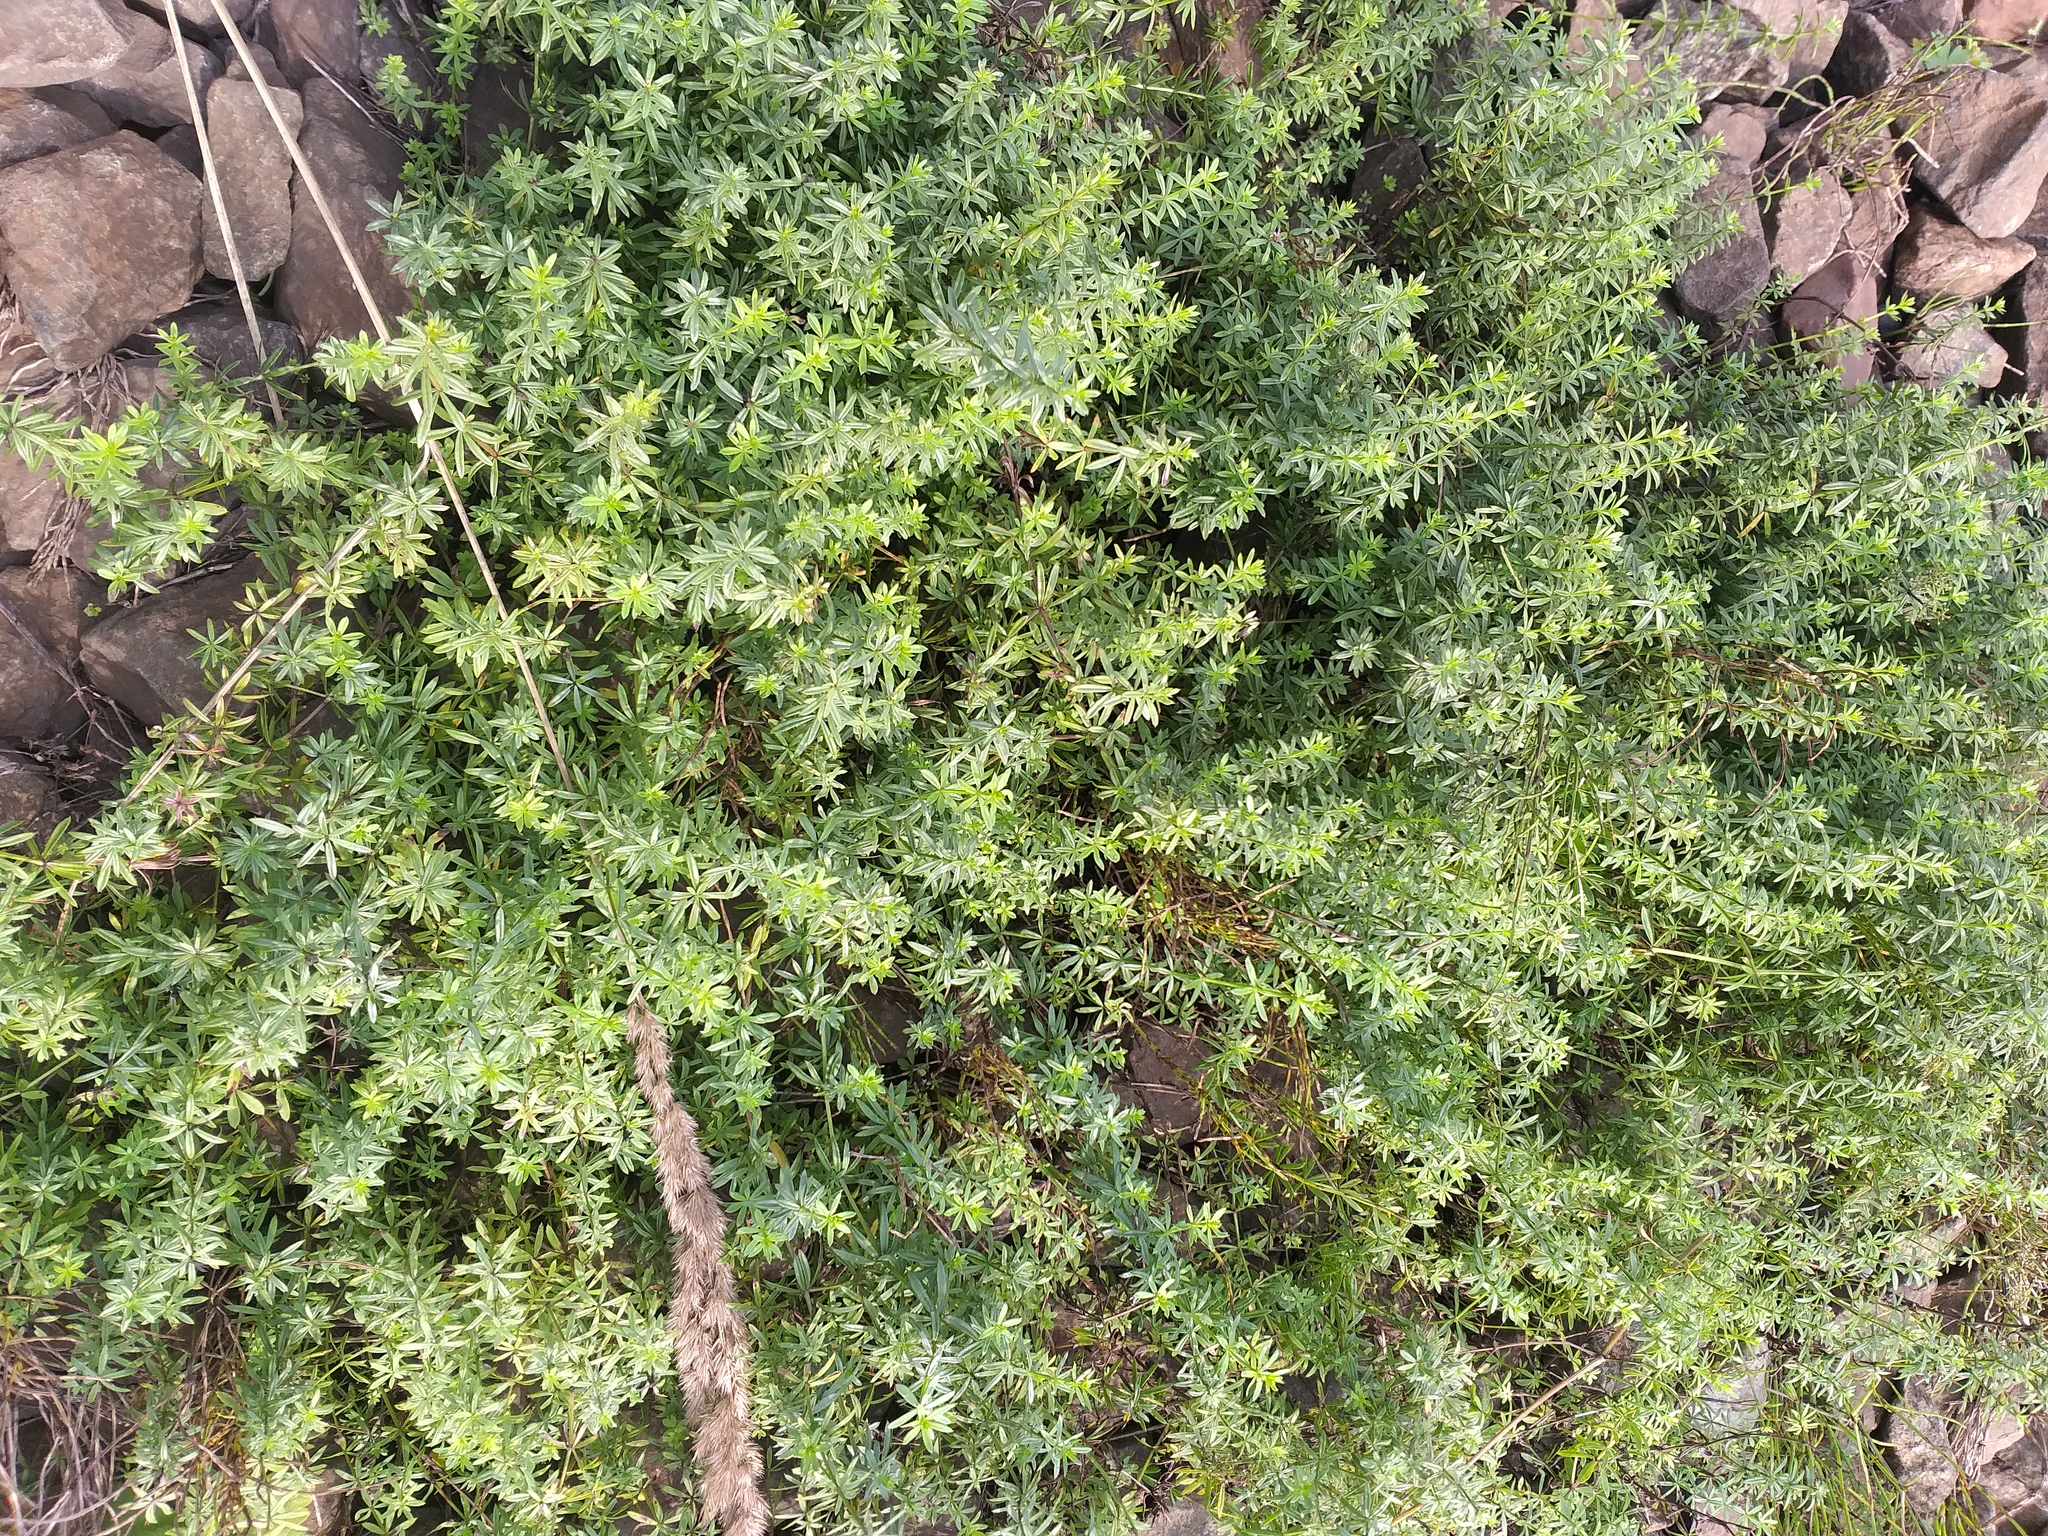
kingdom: Plantae
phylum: Tracheophyta
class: Magnoliopsida
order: Gentianales
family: Rubiaceae
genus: Galium
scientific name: Galium mollugo
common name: Hedge bedstraw
